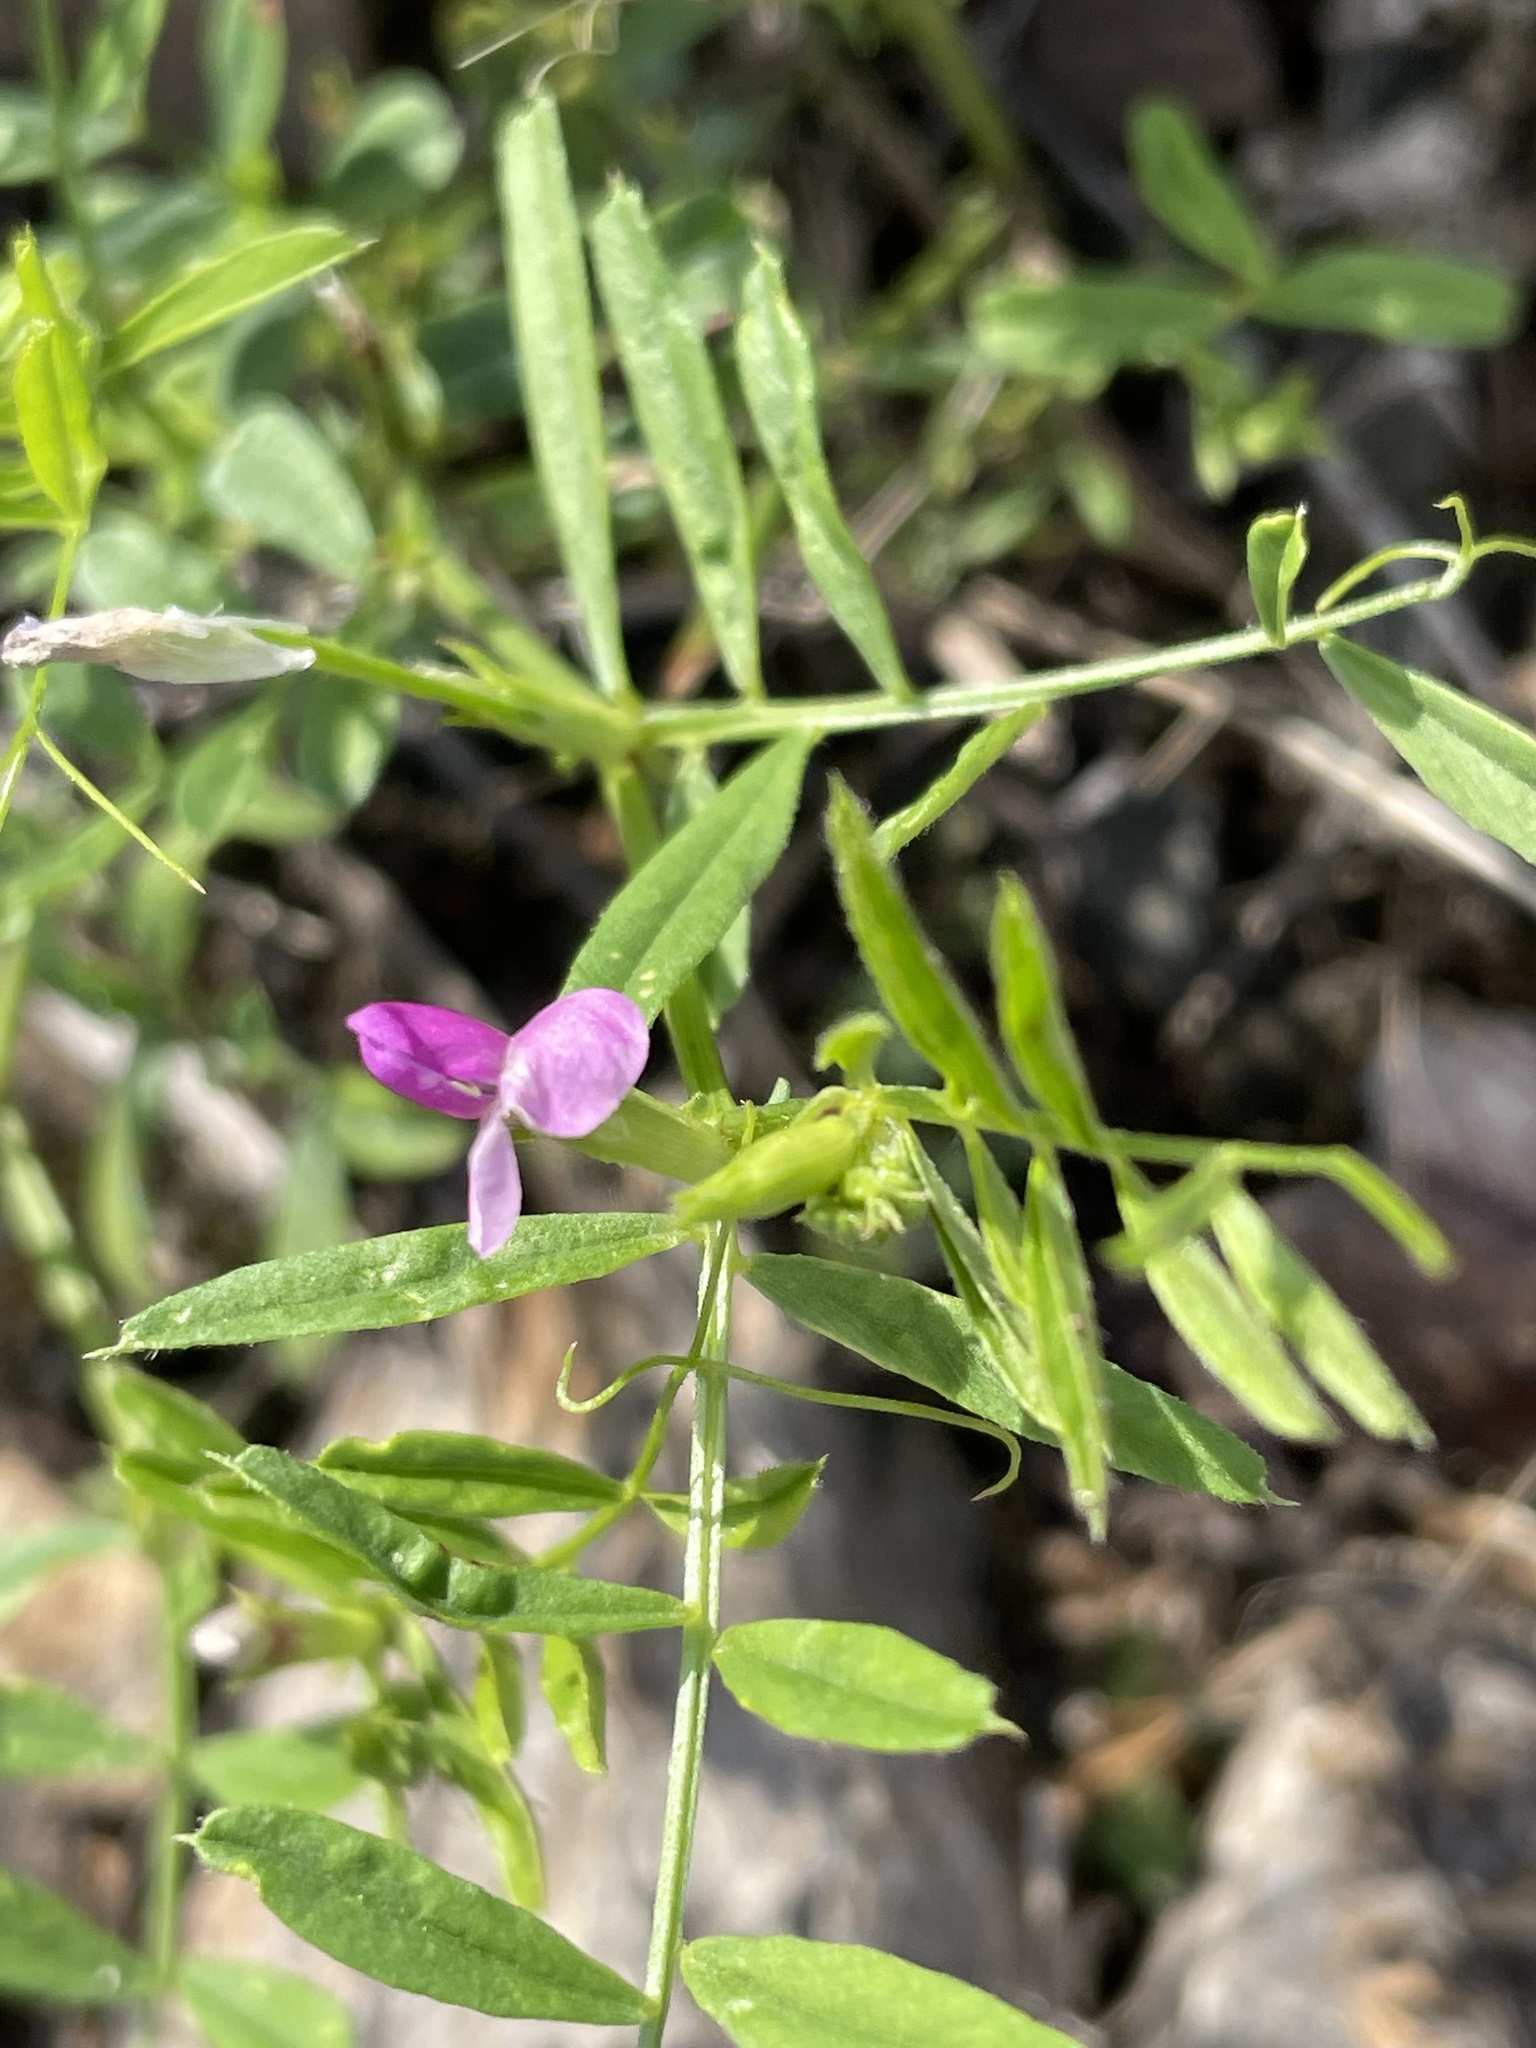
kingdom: Plantae
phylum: Tracheophyta
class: Magnoliopsida
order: Fabales
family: Fabaceae
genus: Vicia
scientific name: Vicia sativa
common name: Garden vetch
